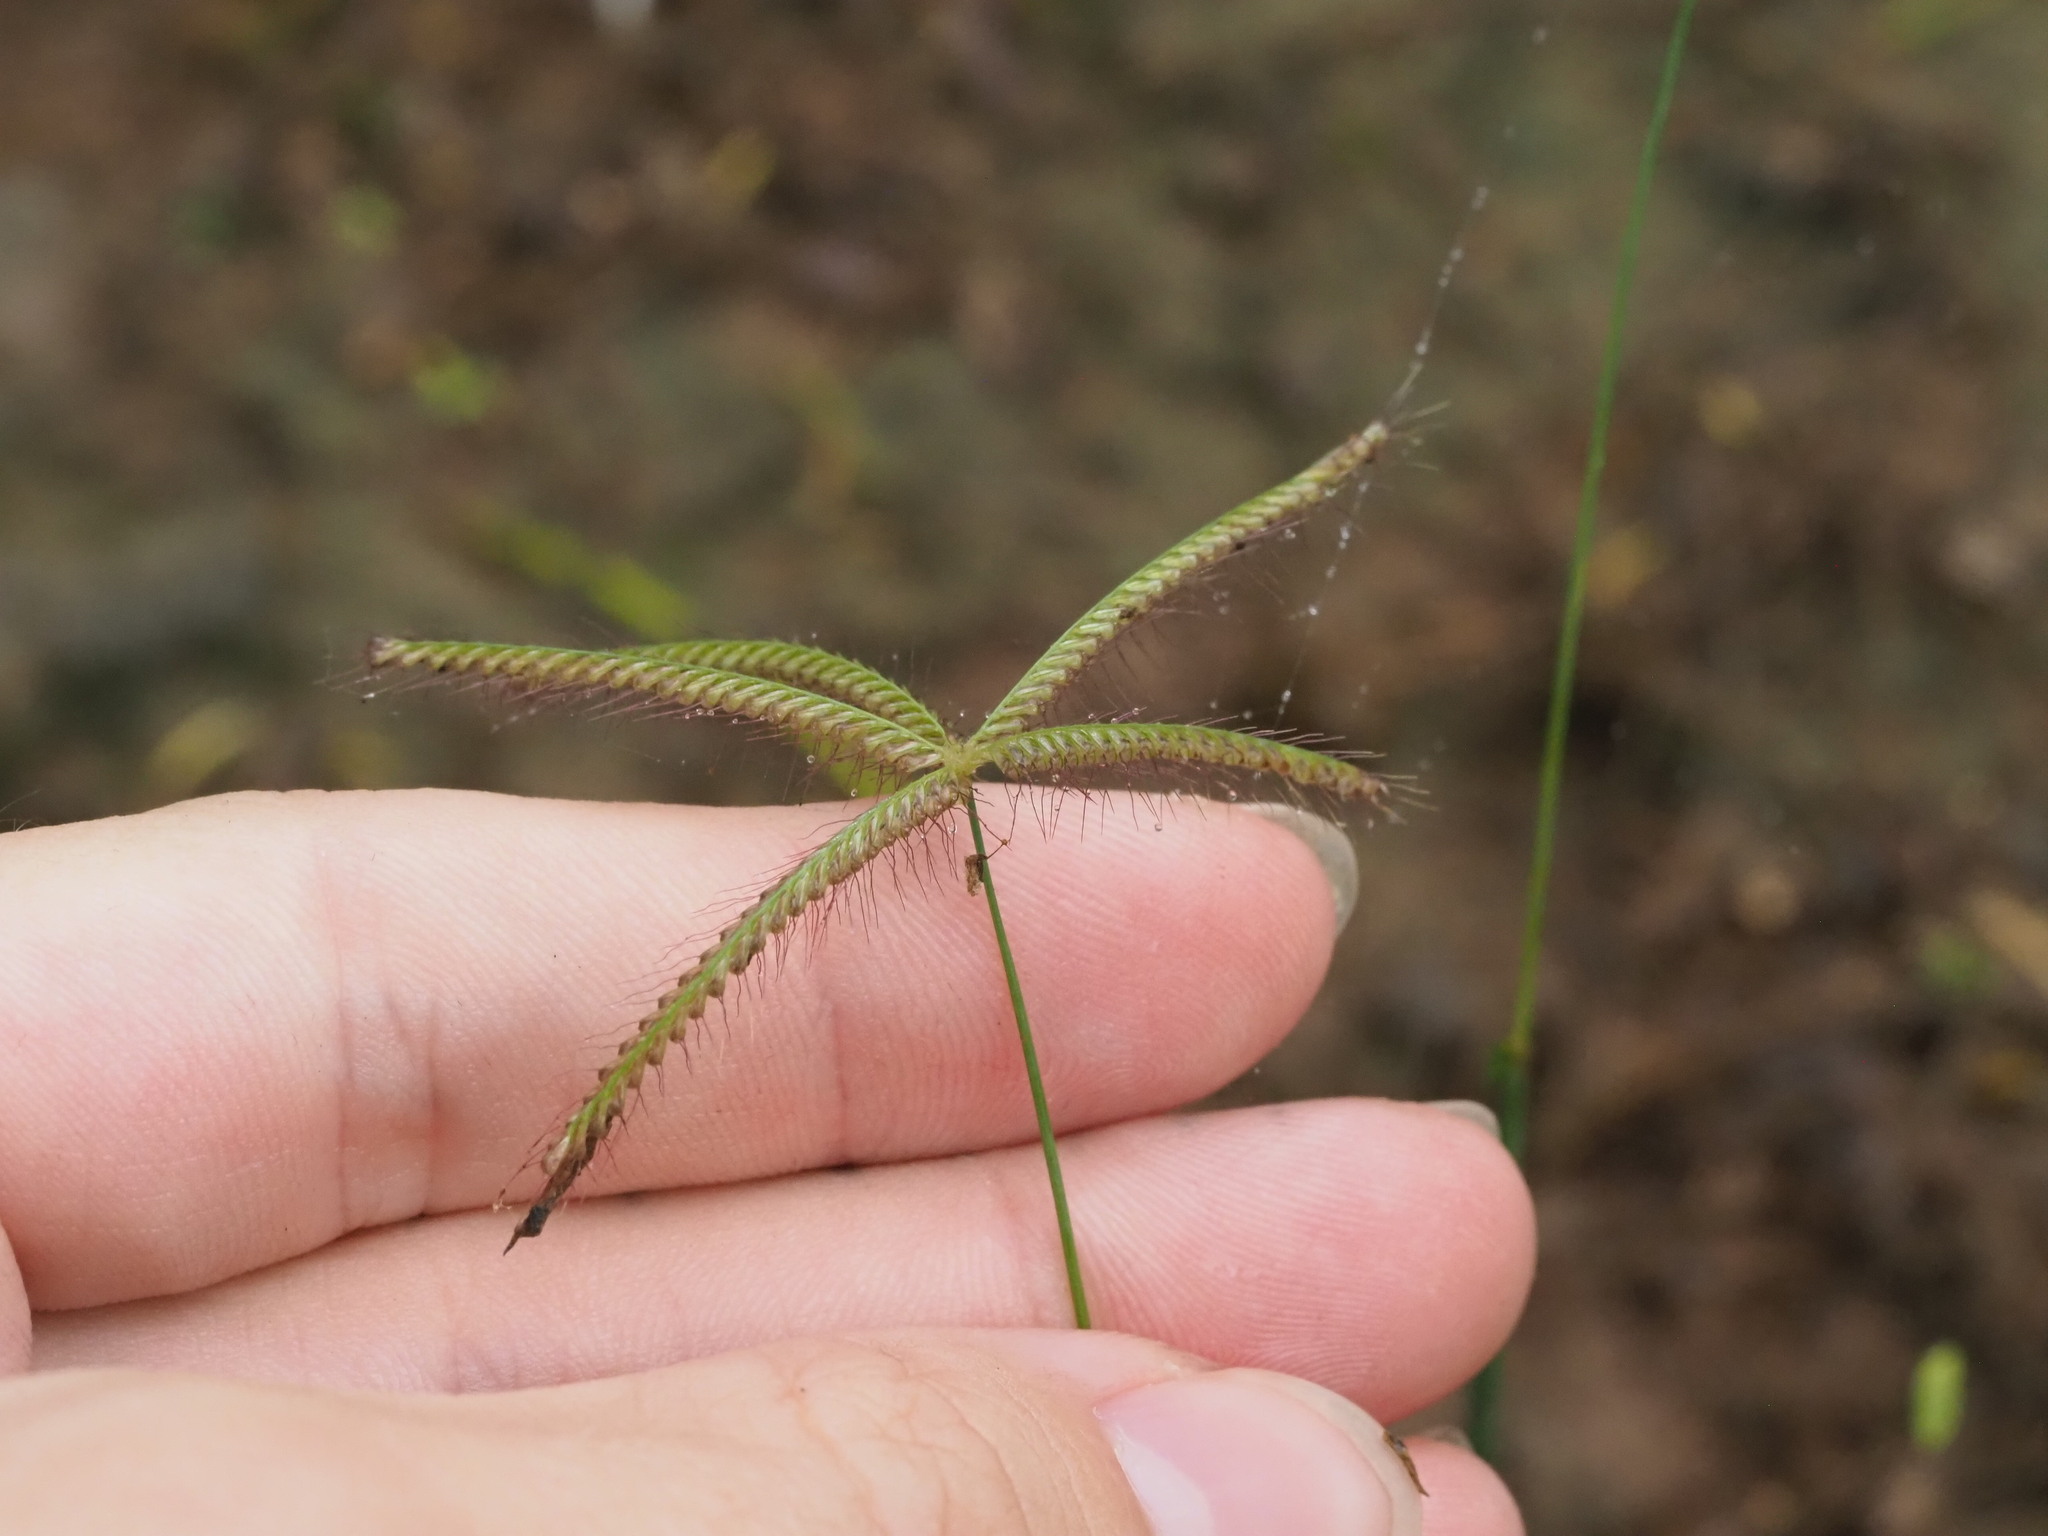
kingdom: Plantae
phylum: Tracheophyta
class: Liliopsida
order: Poales
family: Poaceae
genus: Chloris
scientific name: Chloris barbata
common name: Swollen fingergrass
